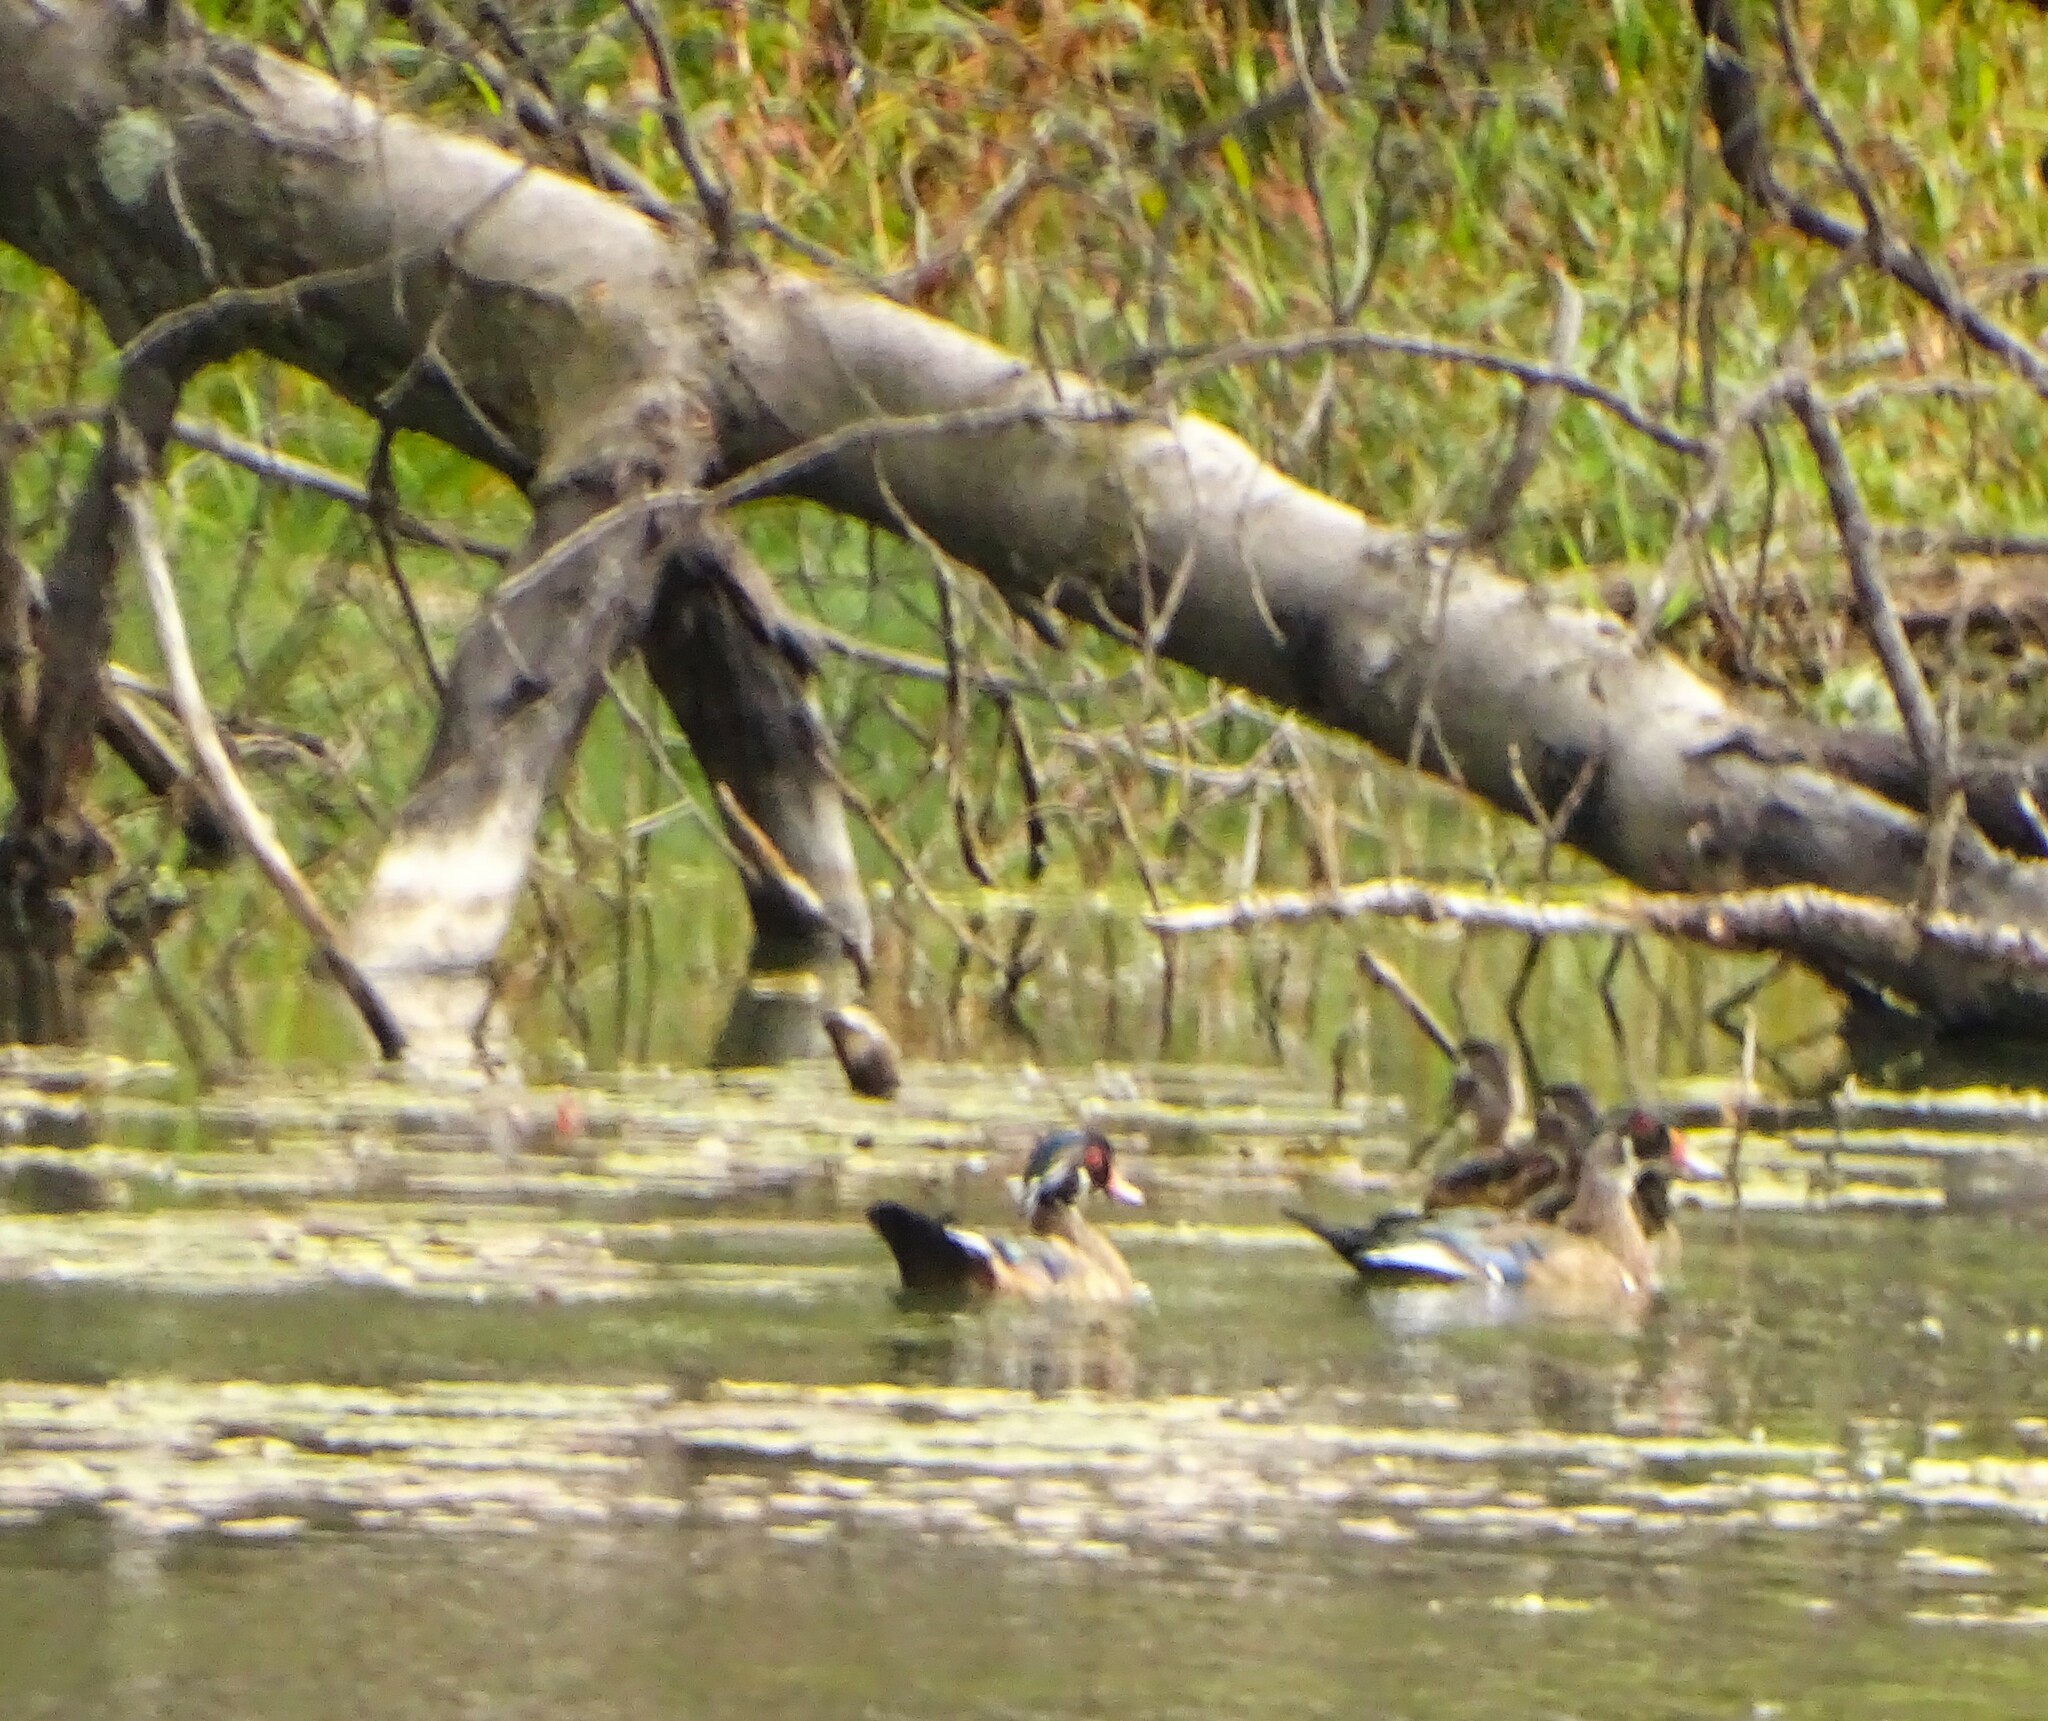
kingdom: Animalia
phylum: Chordata
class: Aves
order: Anseriformes
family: Anatidae
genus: Aix
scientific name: Aix sponsa
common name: Wood duck
